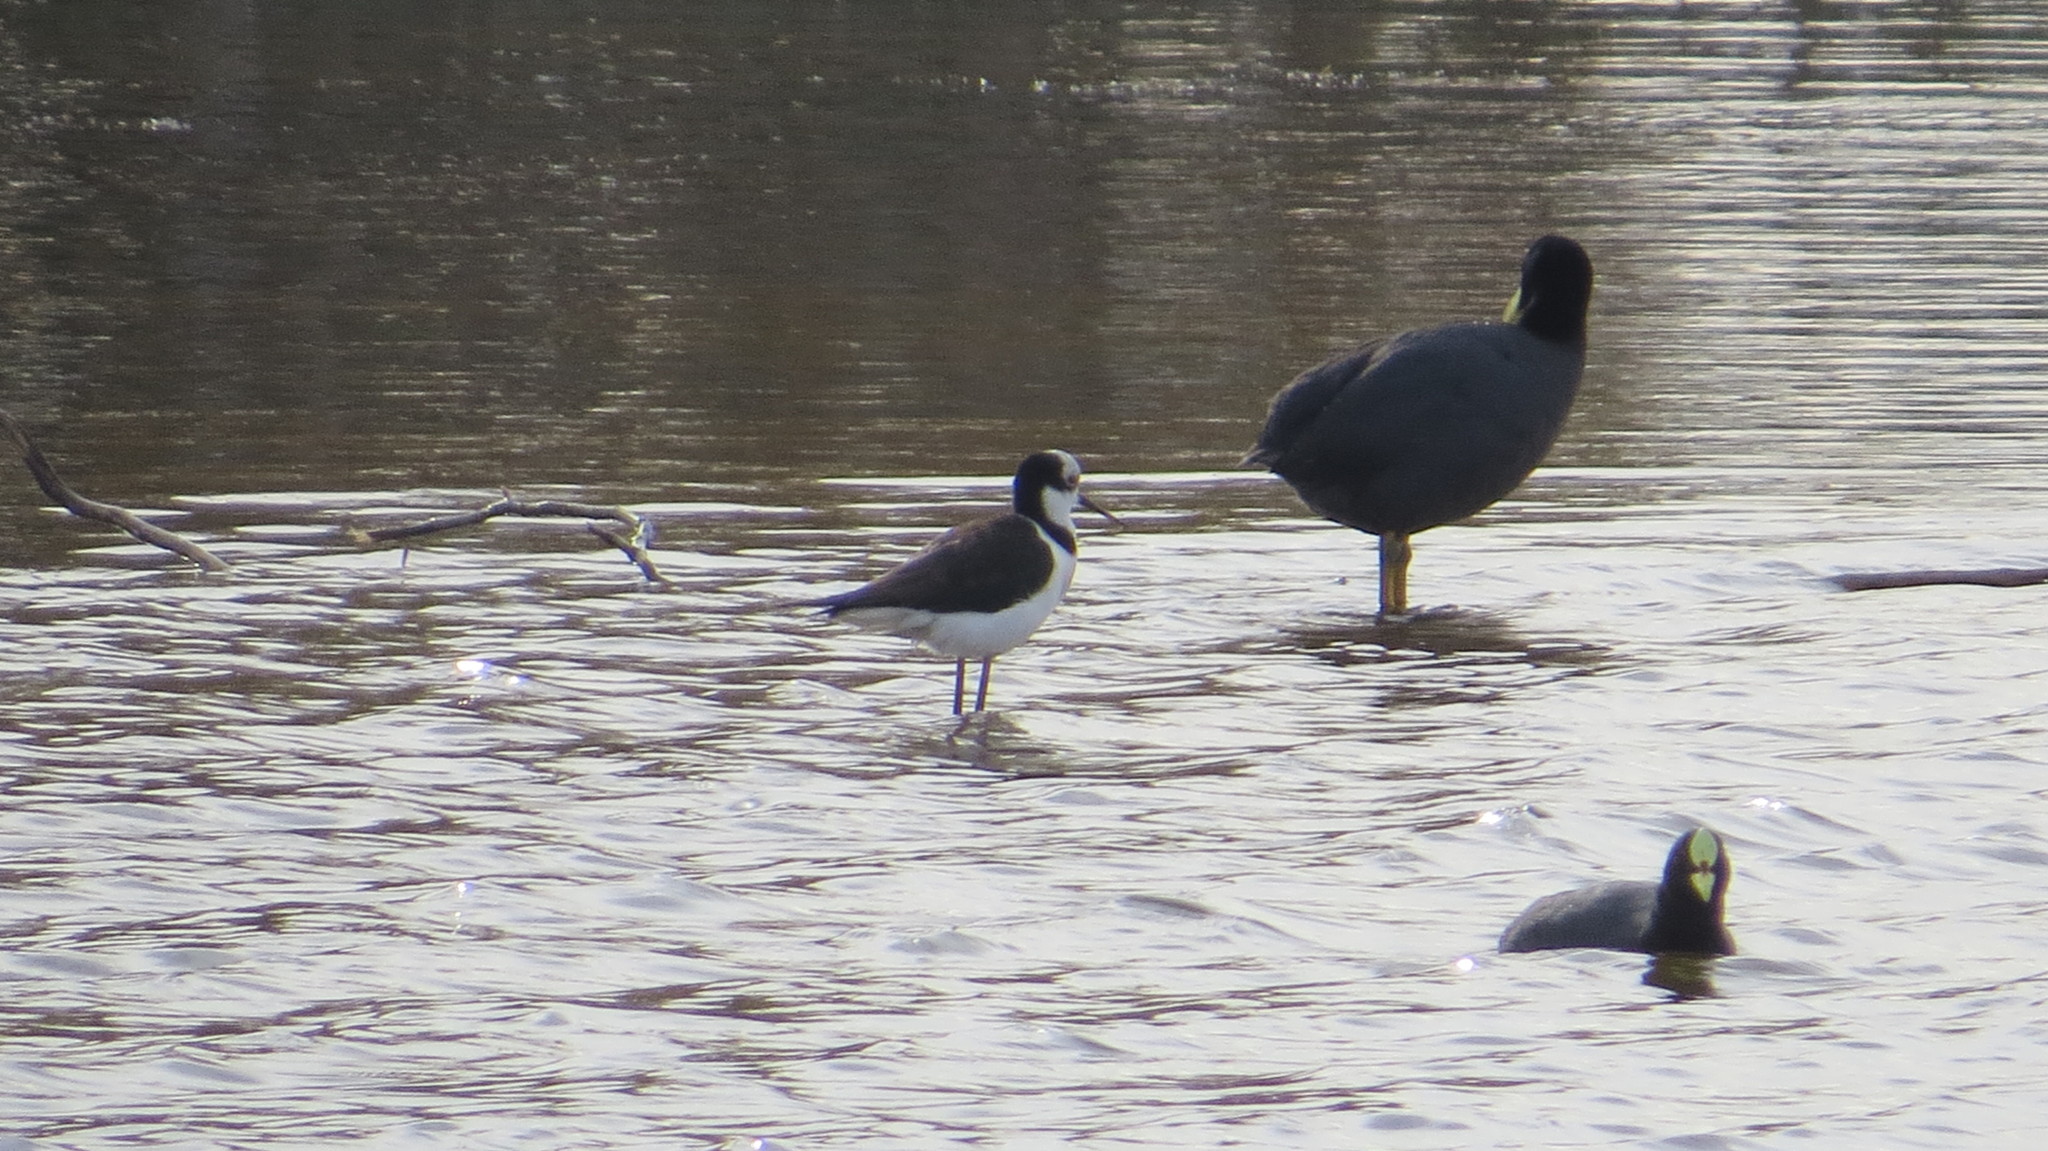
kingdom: Animalia
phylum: Chordata
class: Aves
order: Gruiformes
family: Rallidae
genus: Fulica
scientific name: Fulica armillata
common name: Red-gartered coot
